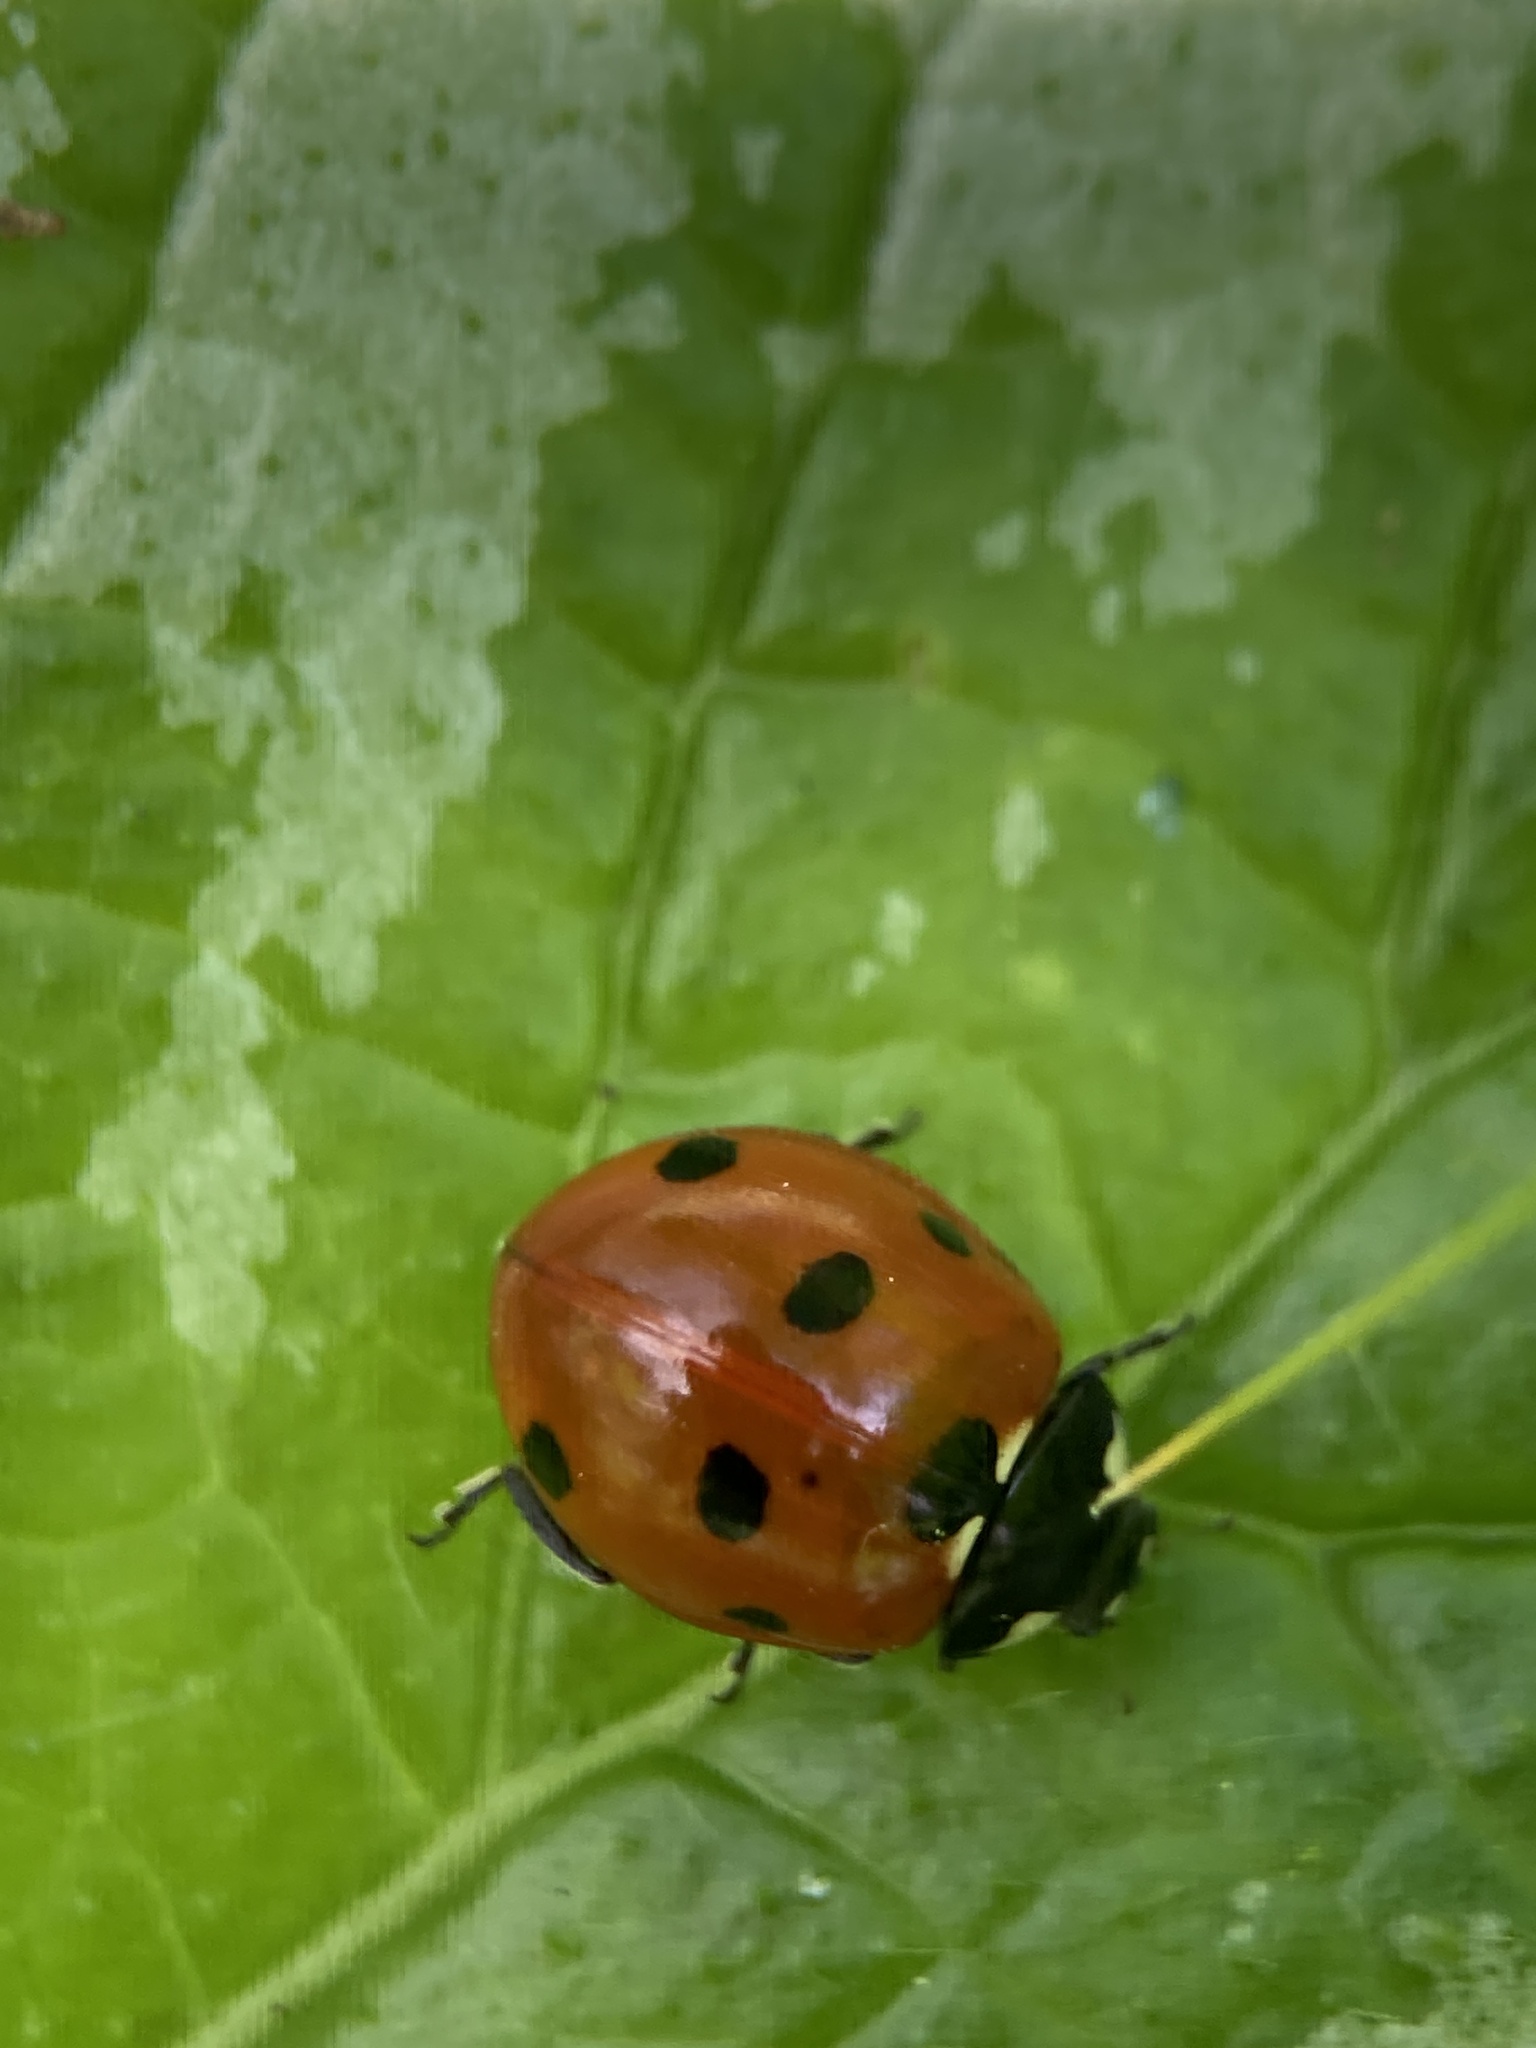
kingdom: Animalia
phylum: Arthropoda
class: Insecta
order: Coleoptera
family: Coccinellidae
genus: Coccinella
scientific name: Coccinella septempunctata
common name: Sevenspotted lady beetle
